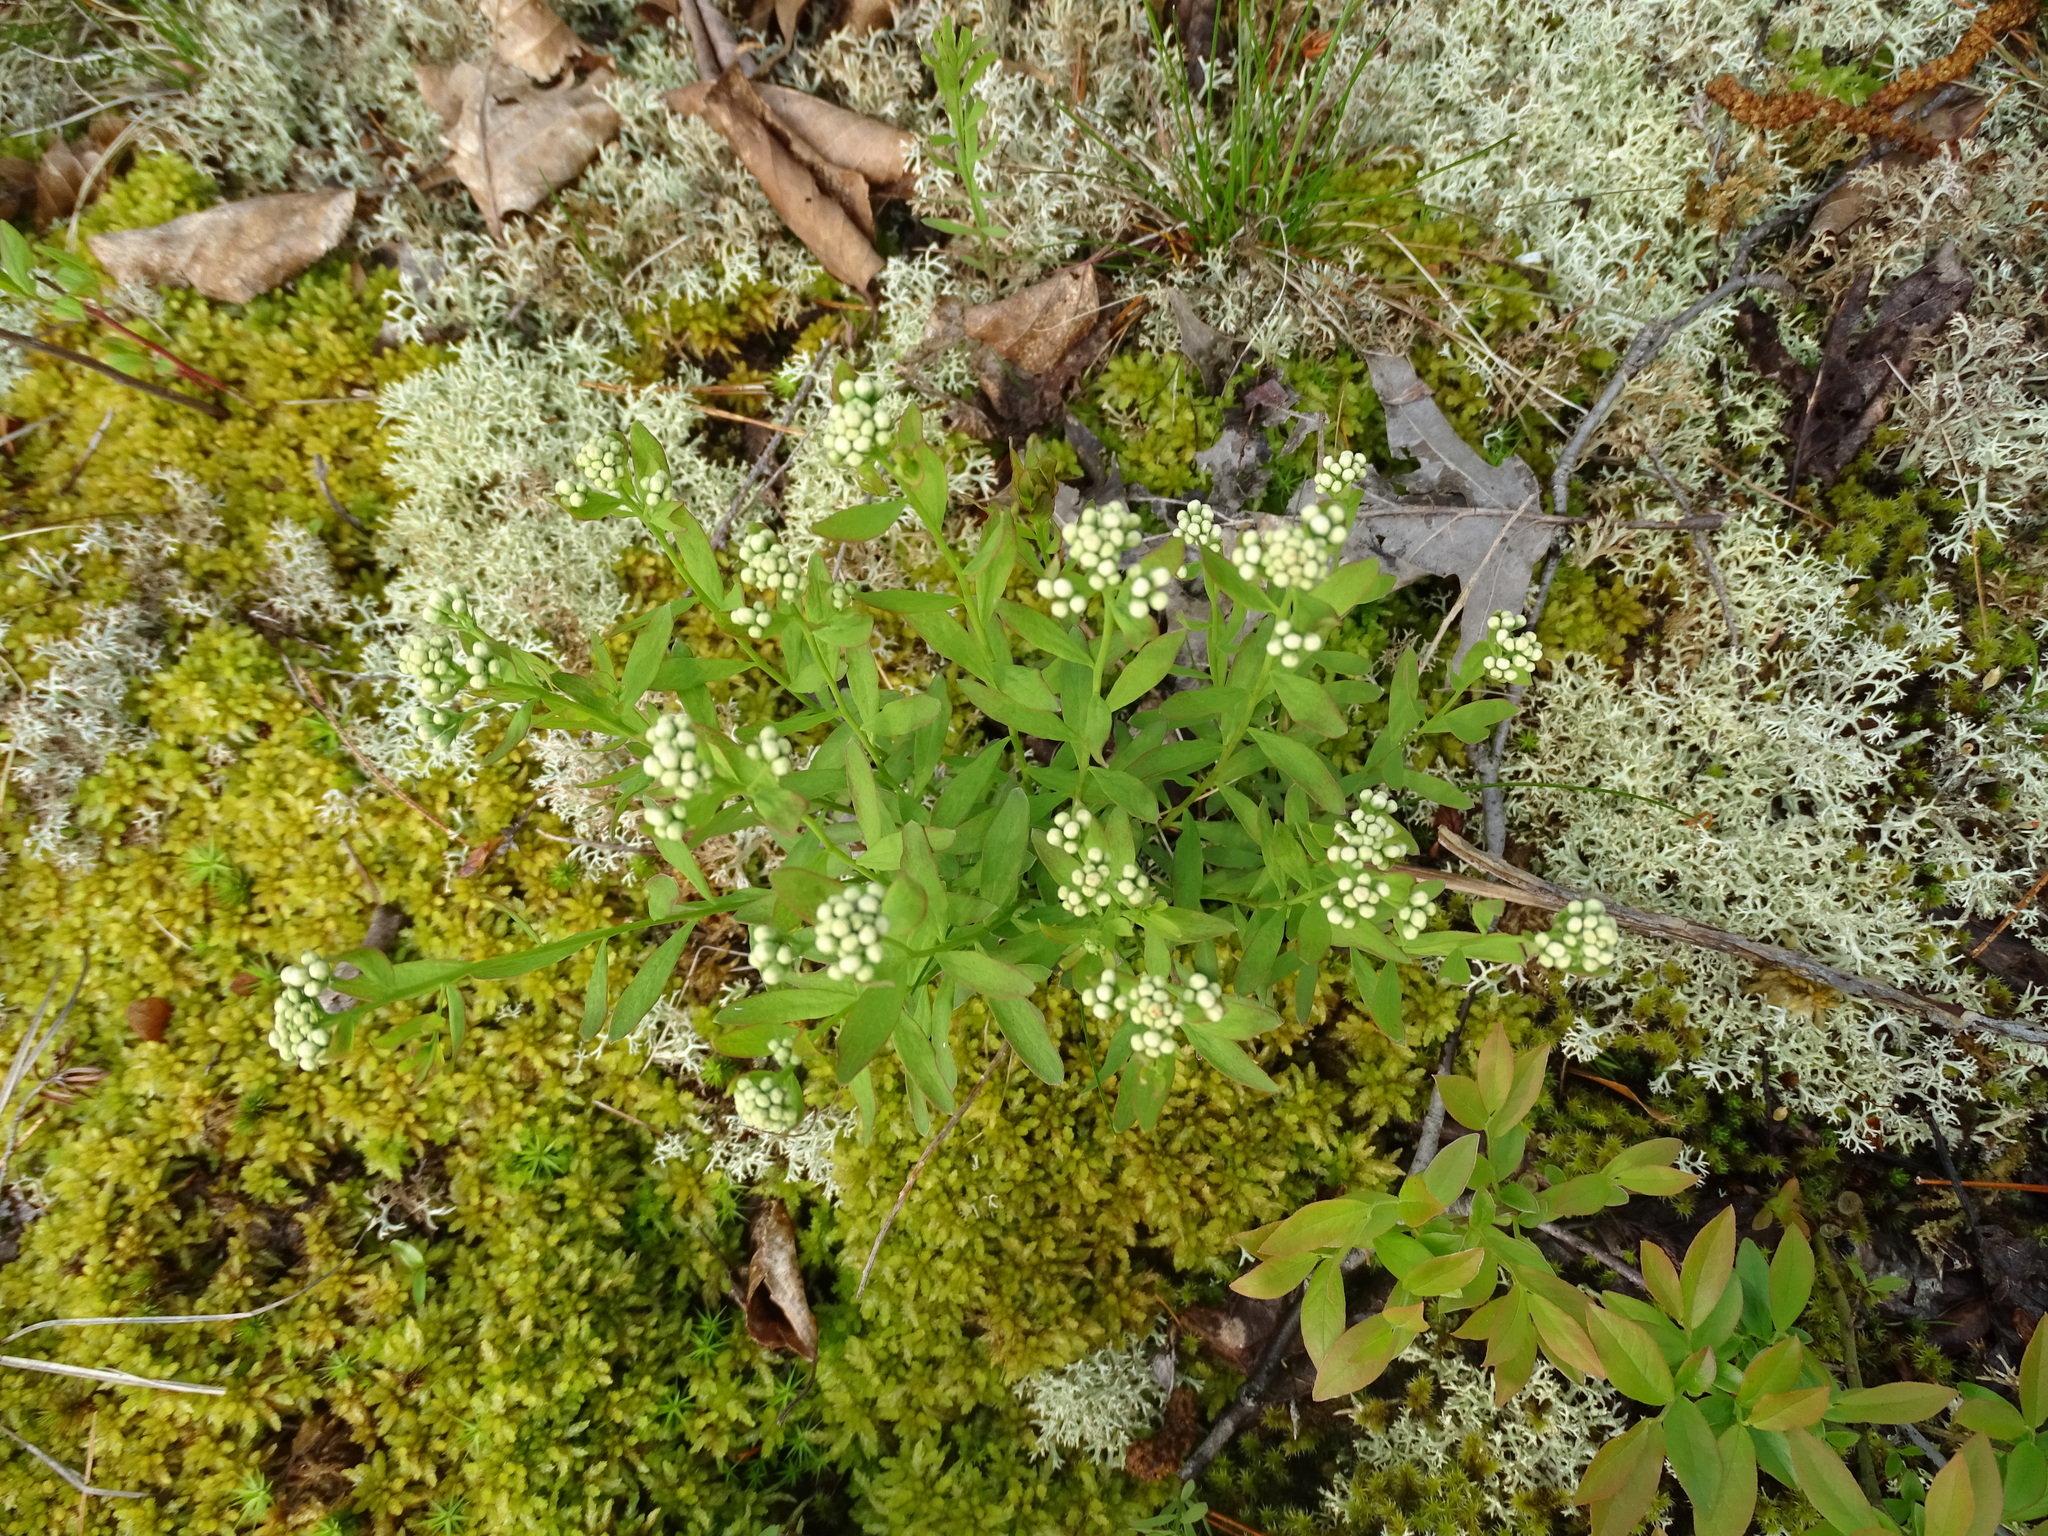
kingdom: Plantae
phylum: Tracheophyta
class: Magnoliopsida
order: Santalales
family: Comandraceae
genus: Comandra
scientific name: Comandra umbellata
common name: Bastard toadflax
